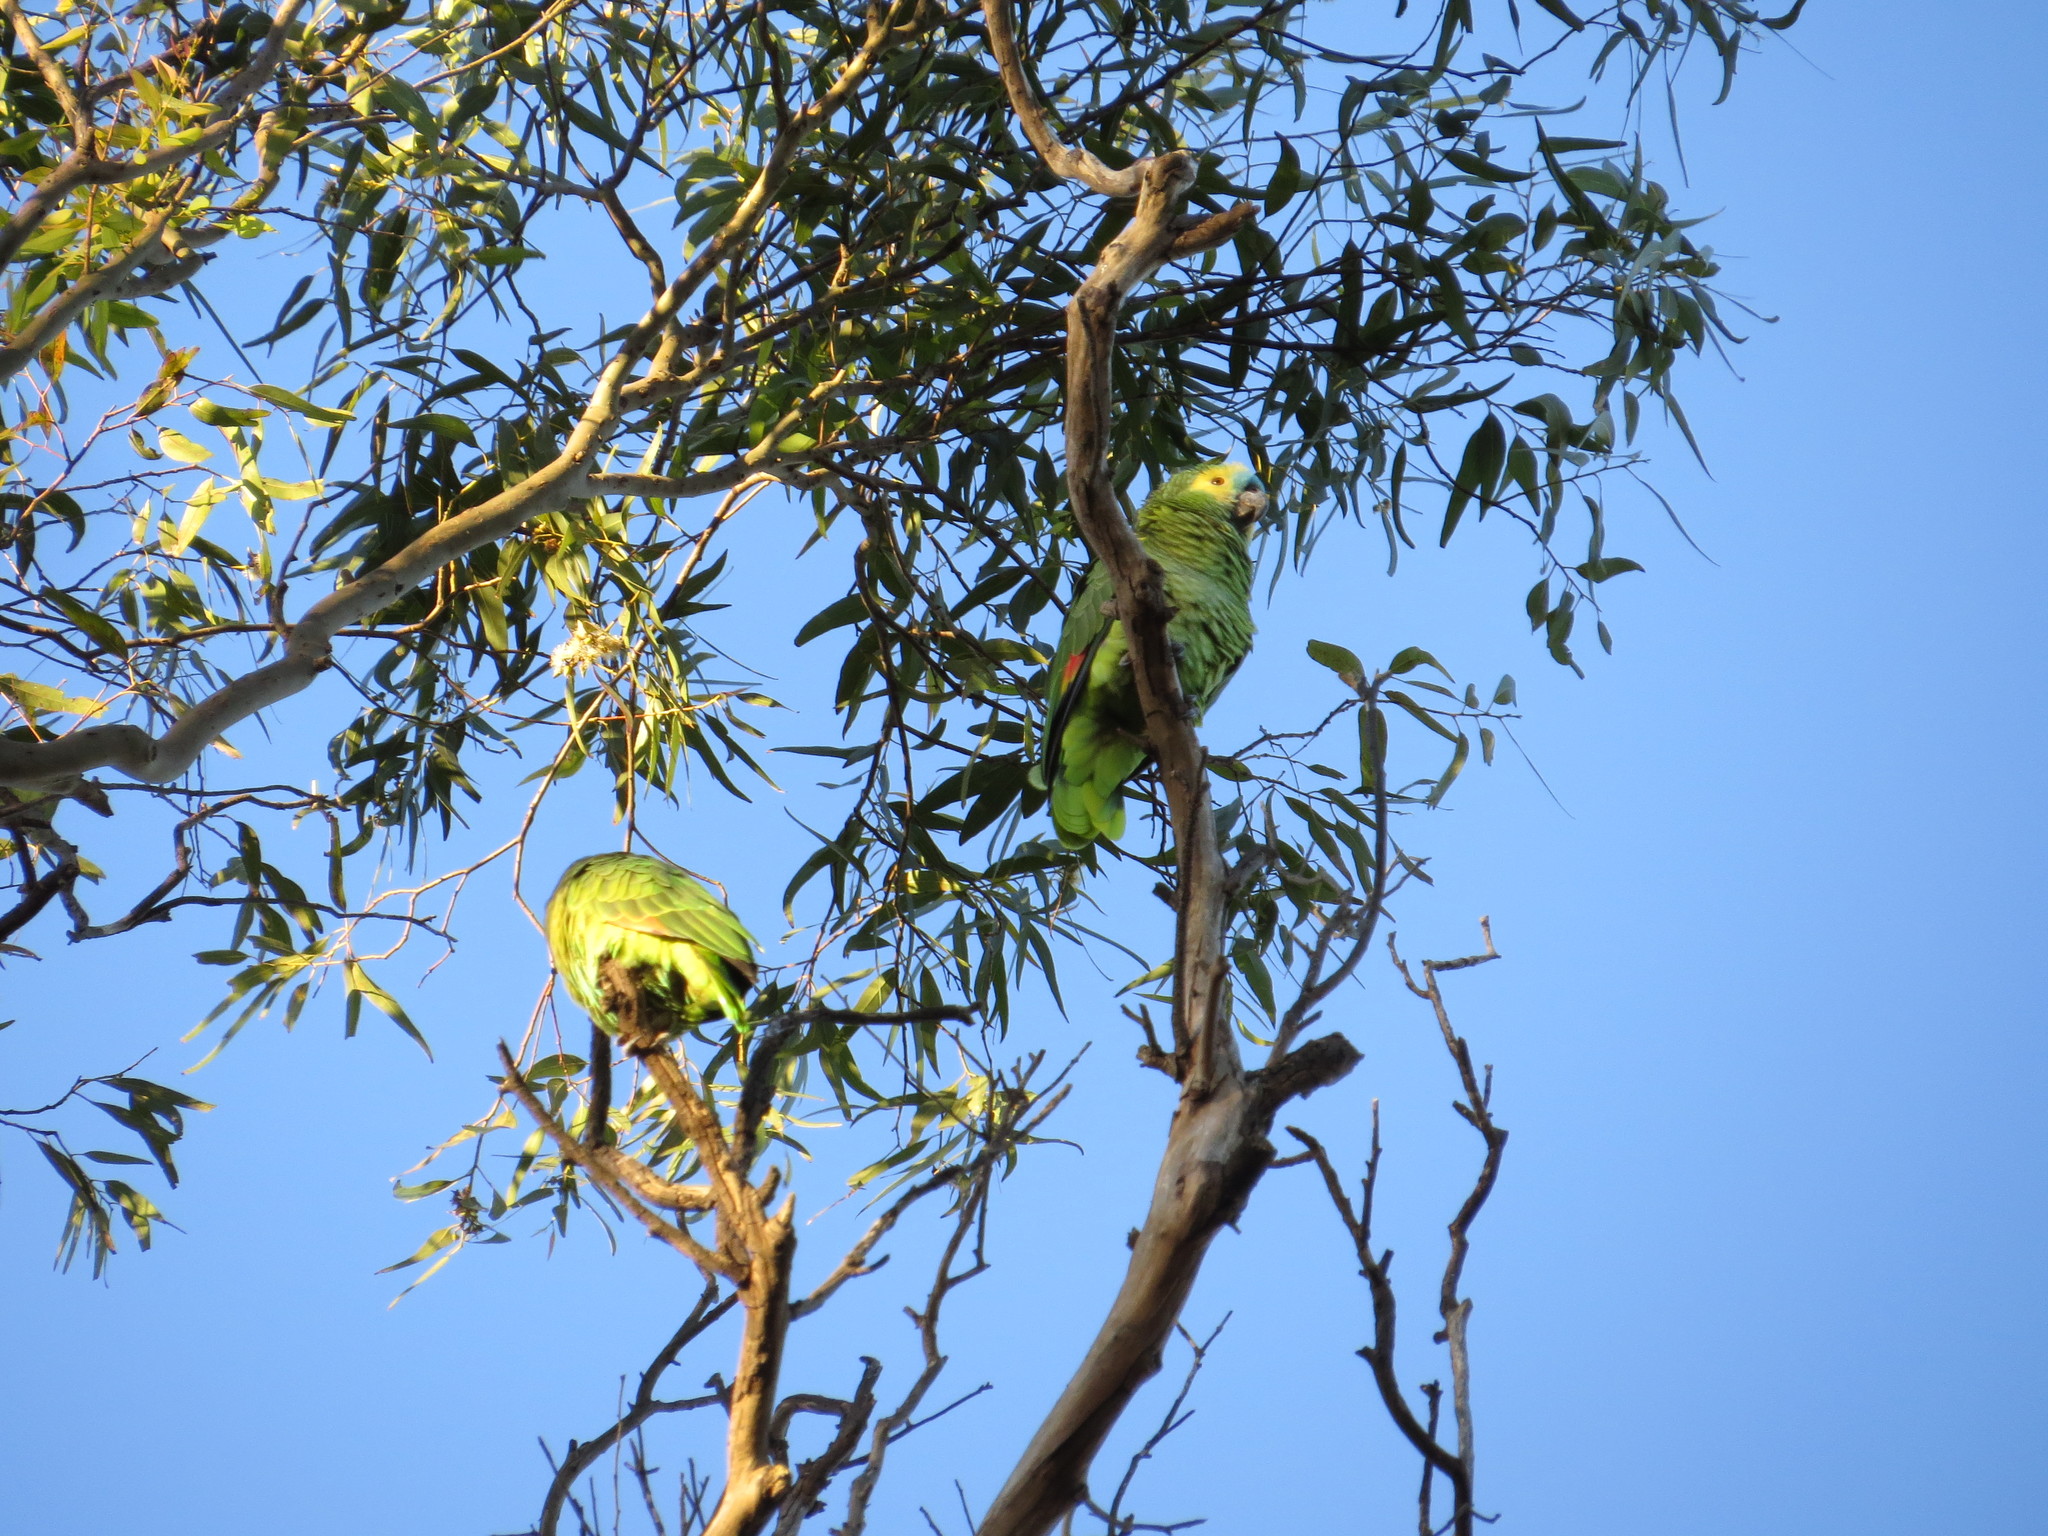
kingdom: Animalia
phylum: Chordata
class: Aves
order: Psittaciformes
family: Psittacidae
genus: Amazona
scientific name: Amazona aestiva
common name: Turquoise-fronted amazon
